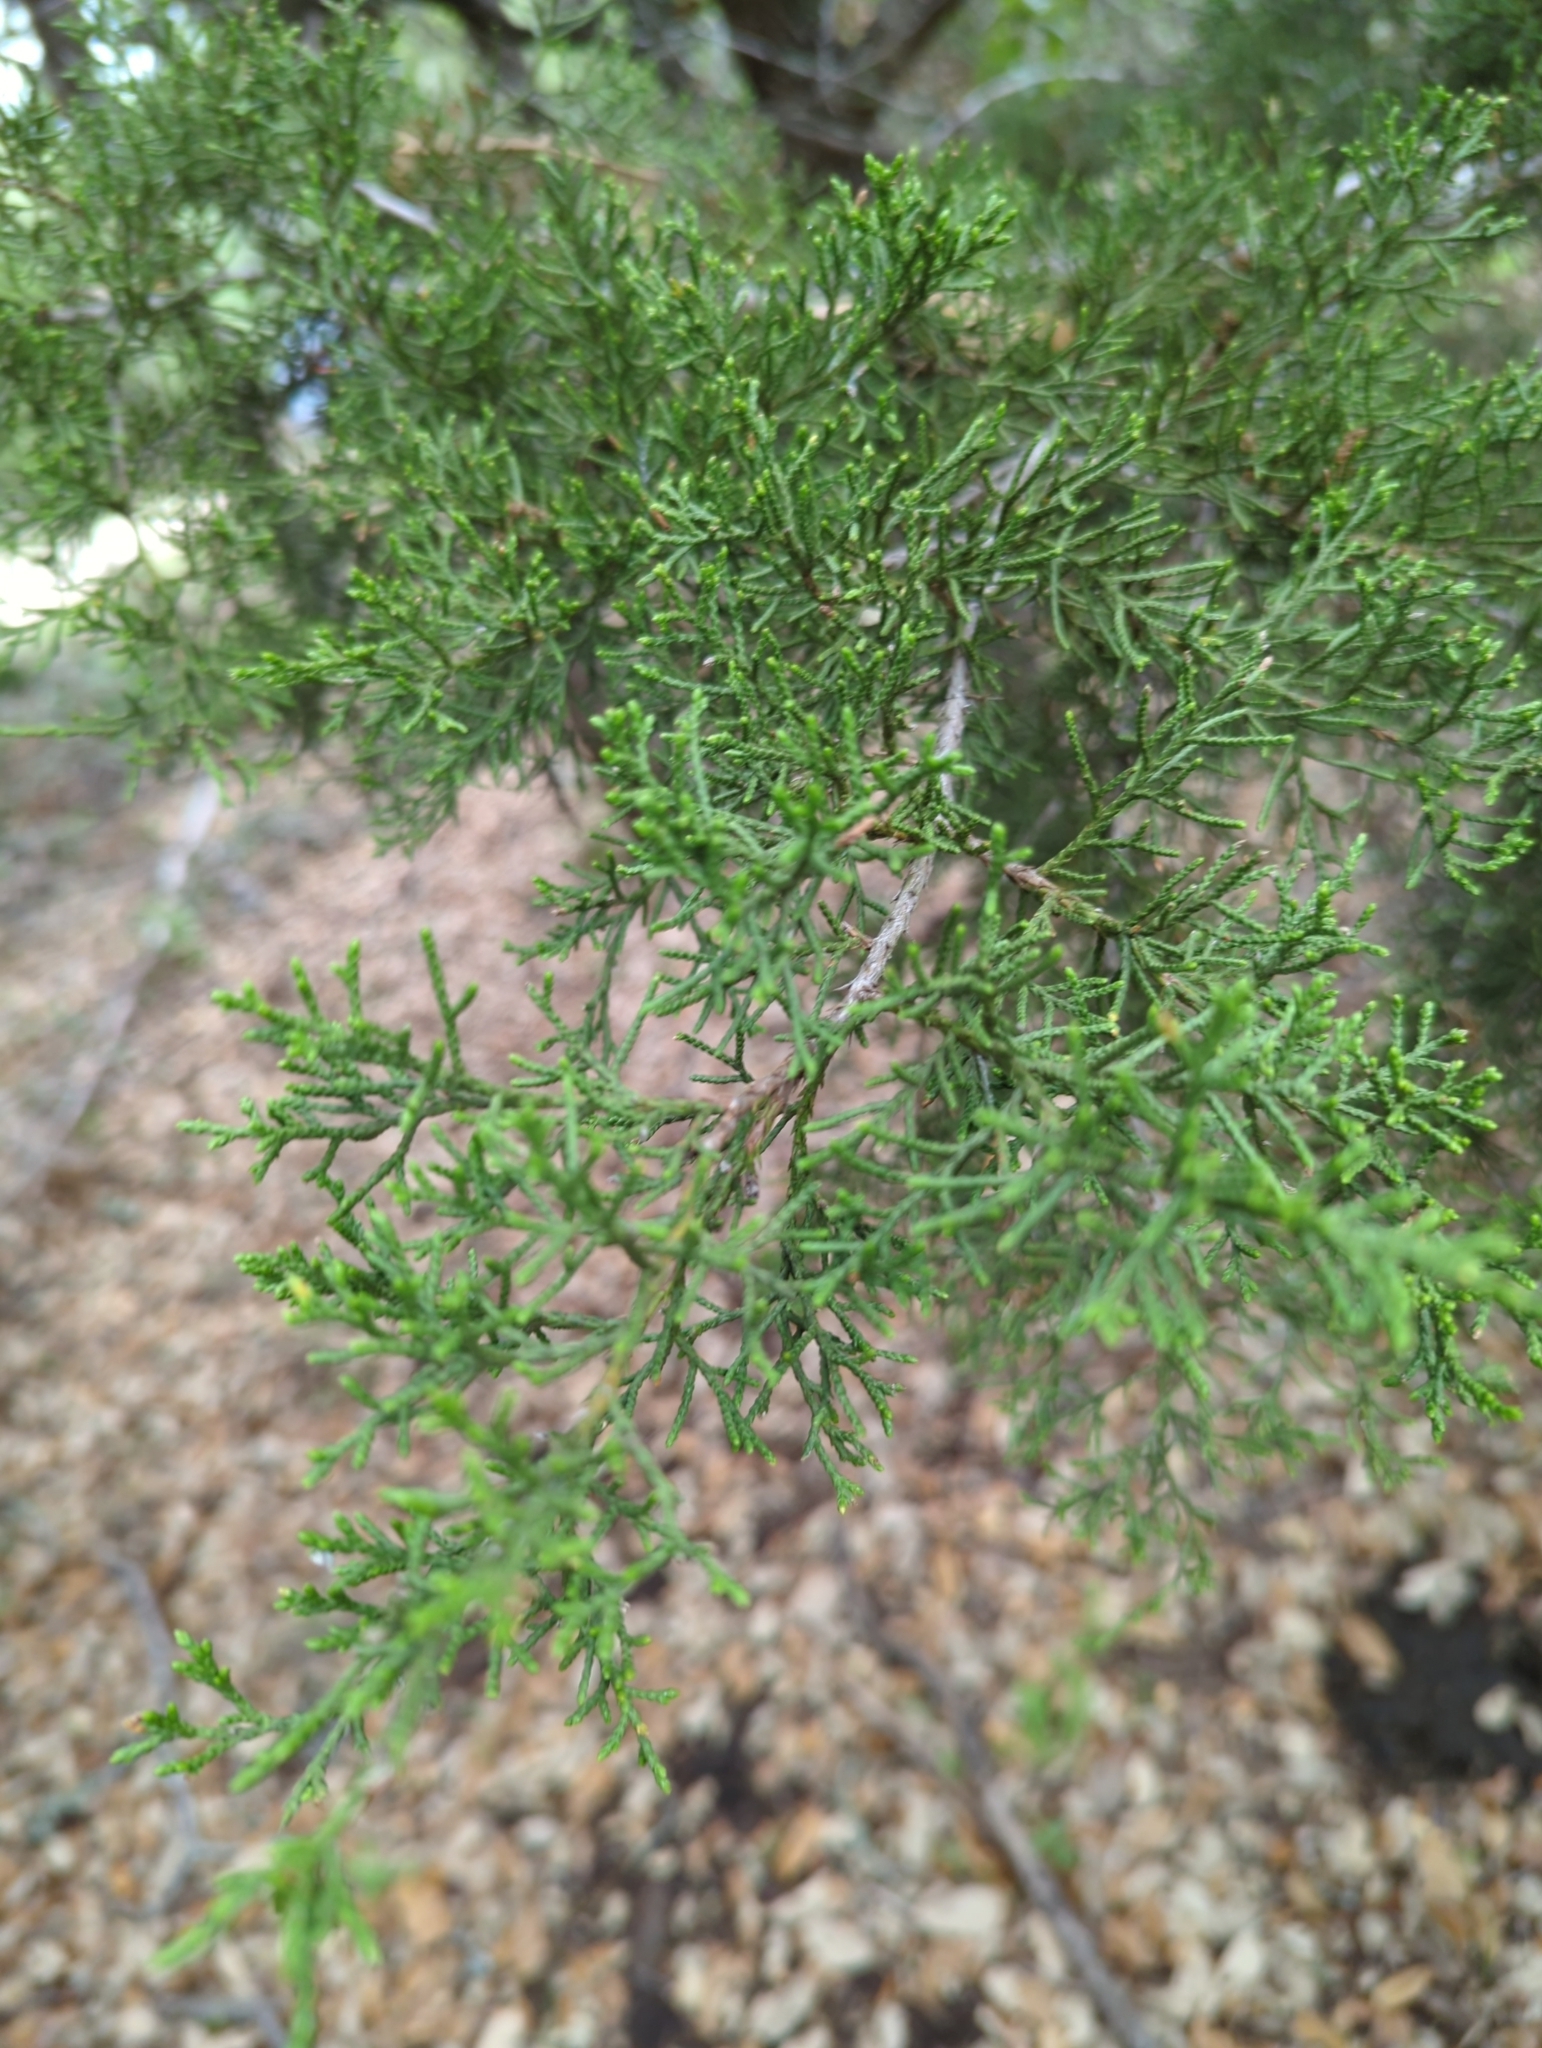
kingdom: Plantae
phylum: Tracheophyta
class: Pinopsida
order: Pinales
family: Cupressaceae
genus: Juniperus
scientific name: Juniperus ashei
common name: Mexican juniper
